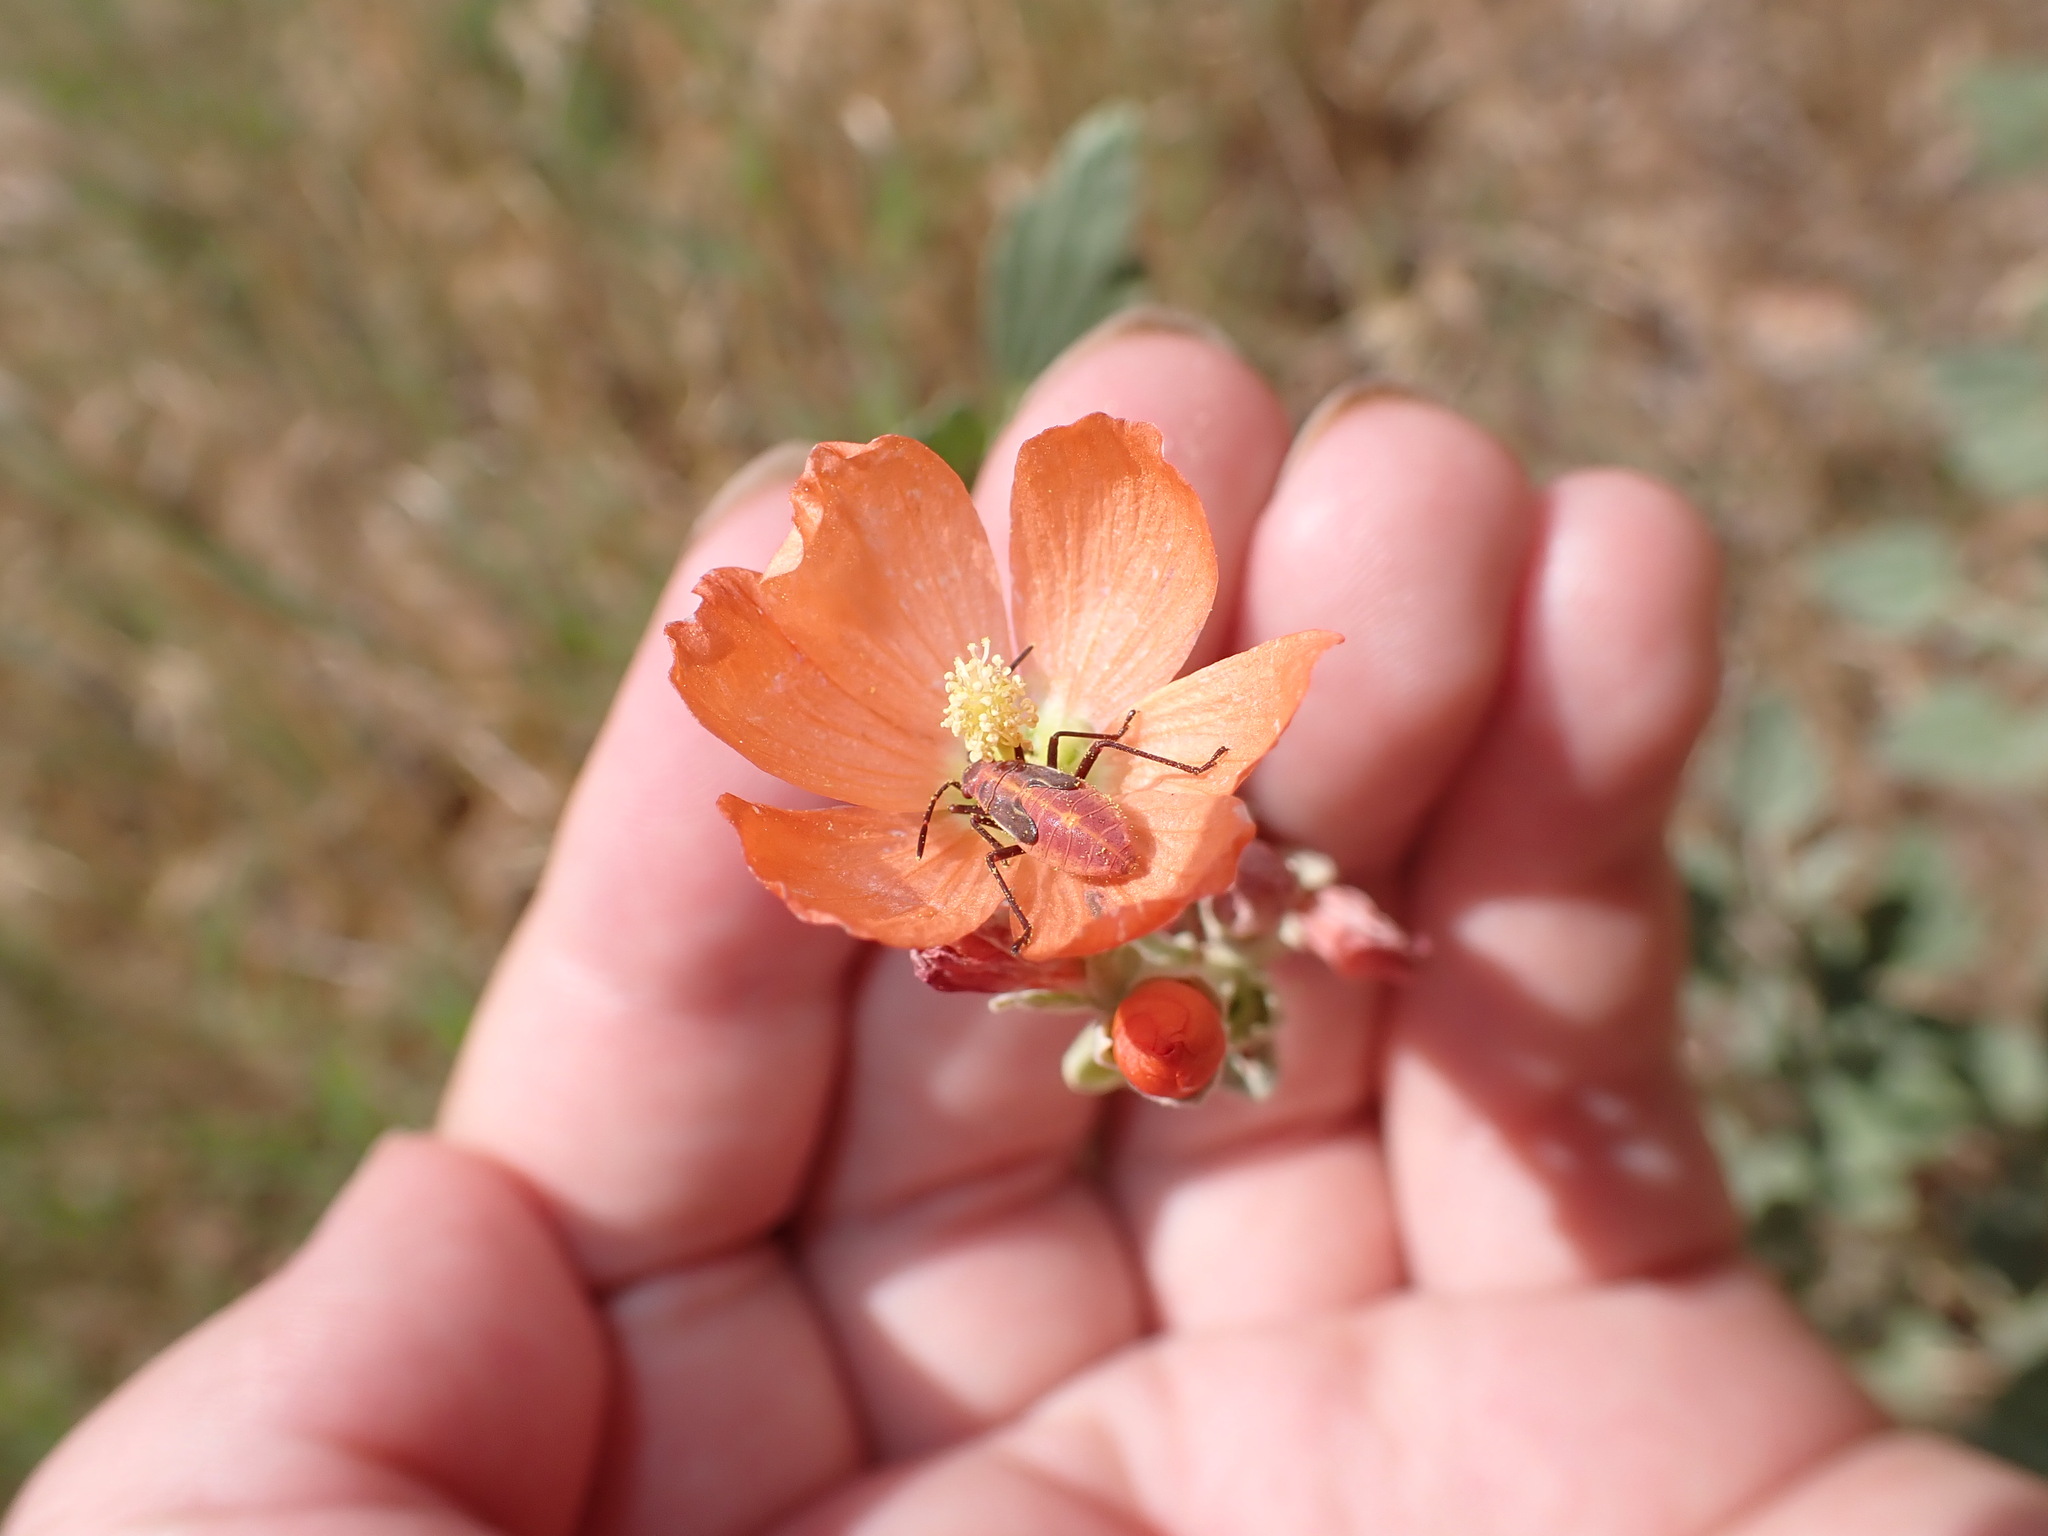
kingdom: Plantae
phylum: Tracheophyta
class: Magnoliopsida
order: Malvales
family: Malvaceae
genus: Sphaeralcea
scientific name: Sphaeralcea parvifolia
